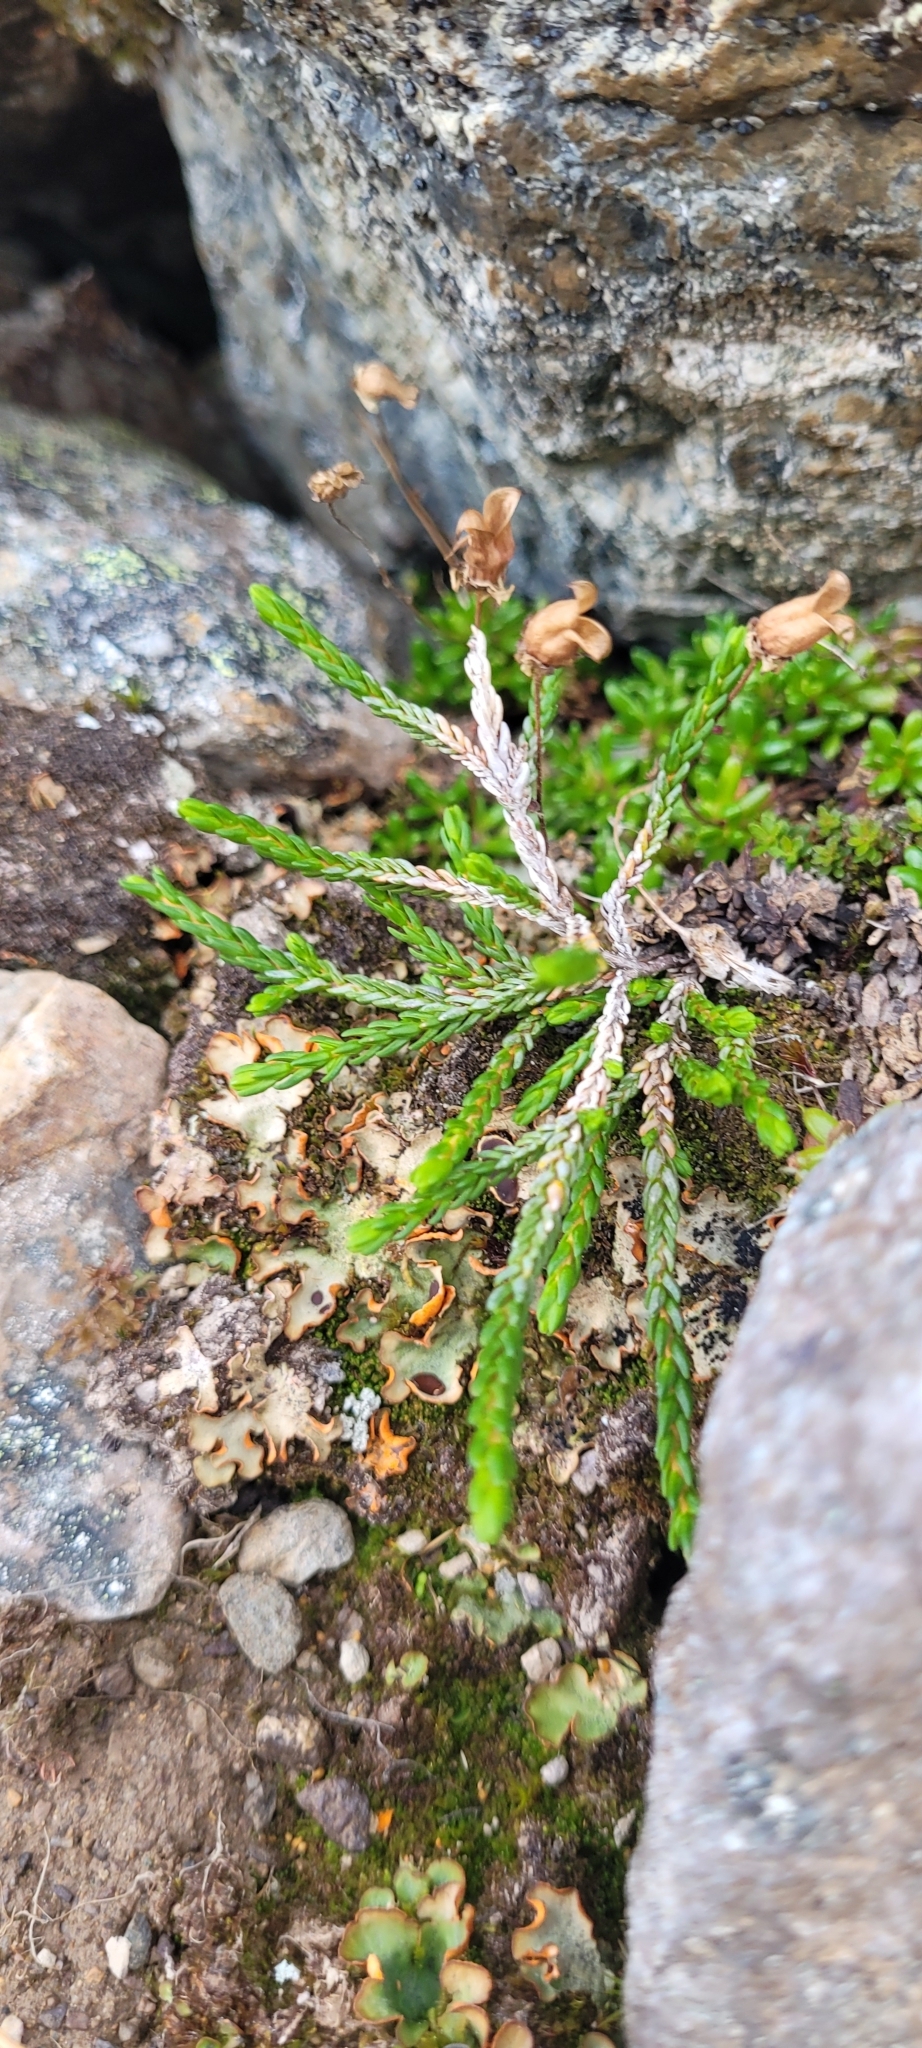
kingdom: Plantae
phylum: Tracheophyta
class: Magnoliopsida
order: Ericales
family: Ericaceae
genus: Cassiope
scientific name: Cassiope mertensiana
